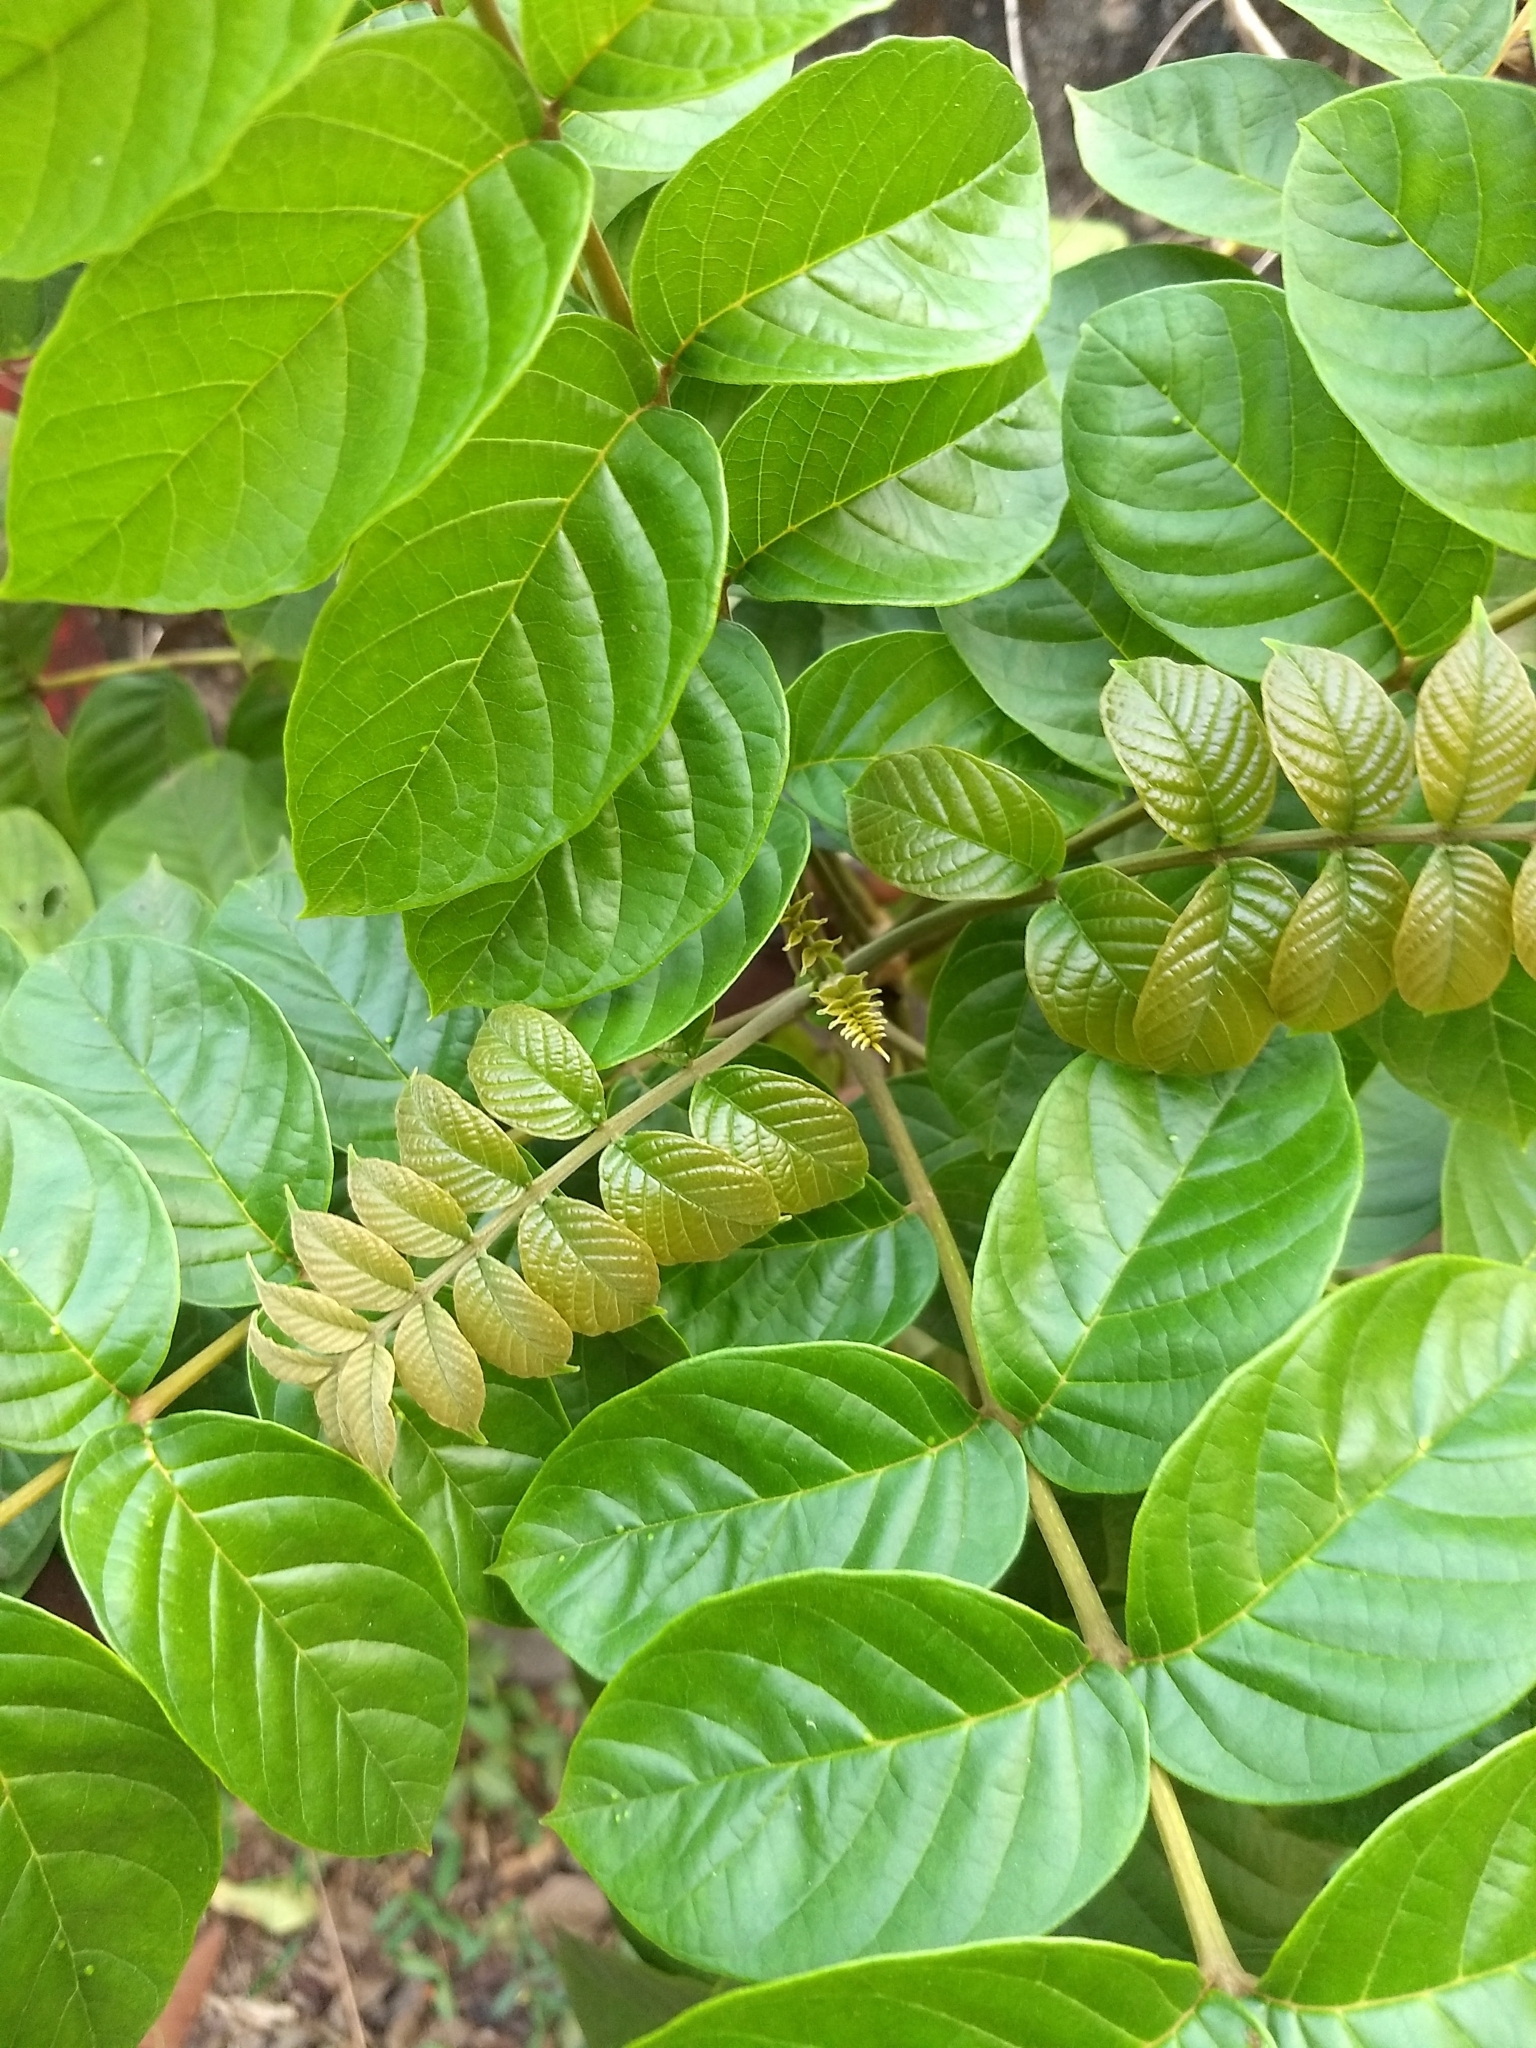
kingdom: Plantae
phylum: Tracheophyta
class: Magnoliopsida
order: Lamiales
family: Bignoniaceae
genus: Spathodea
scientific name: Spathodea campanulata
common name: African tuliptree
